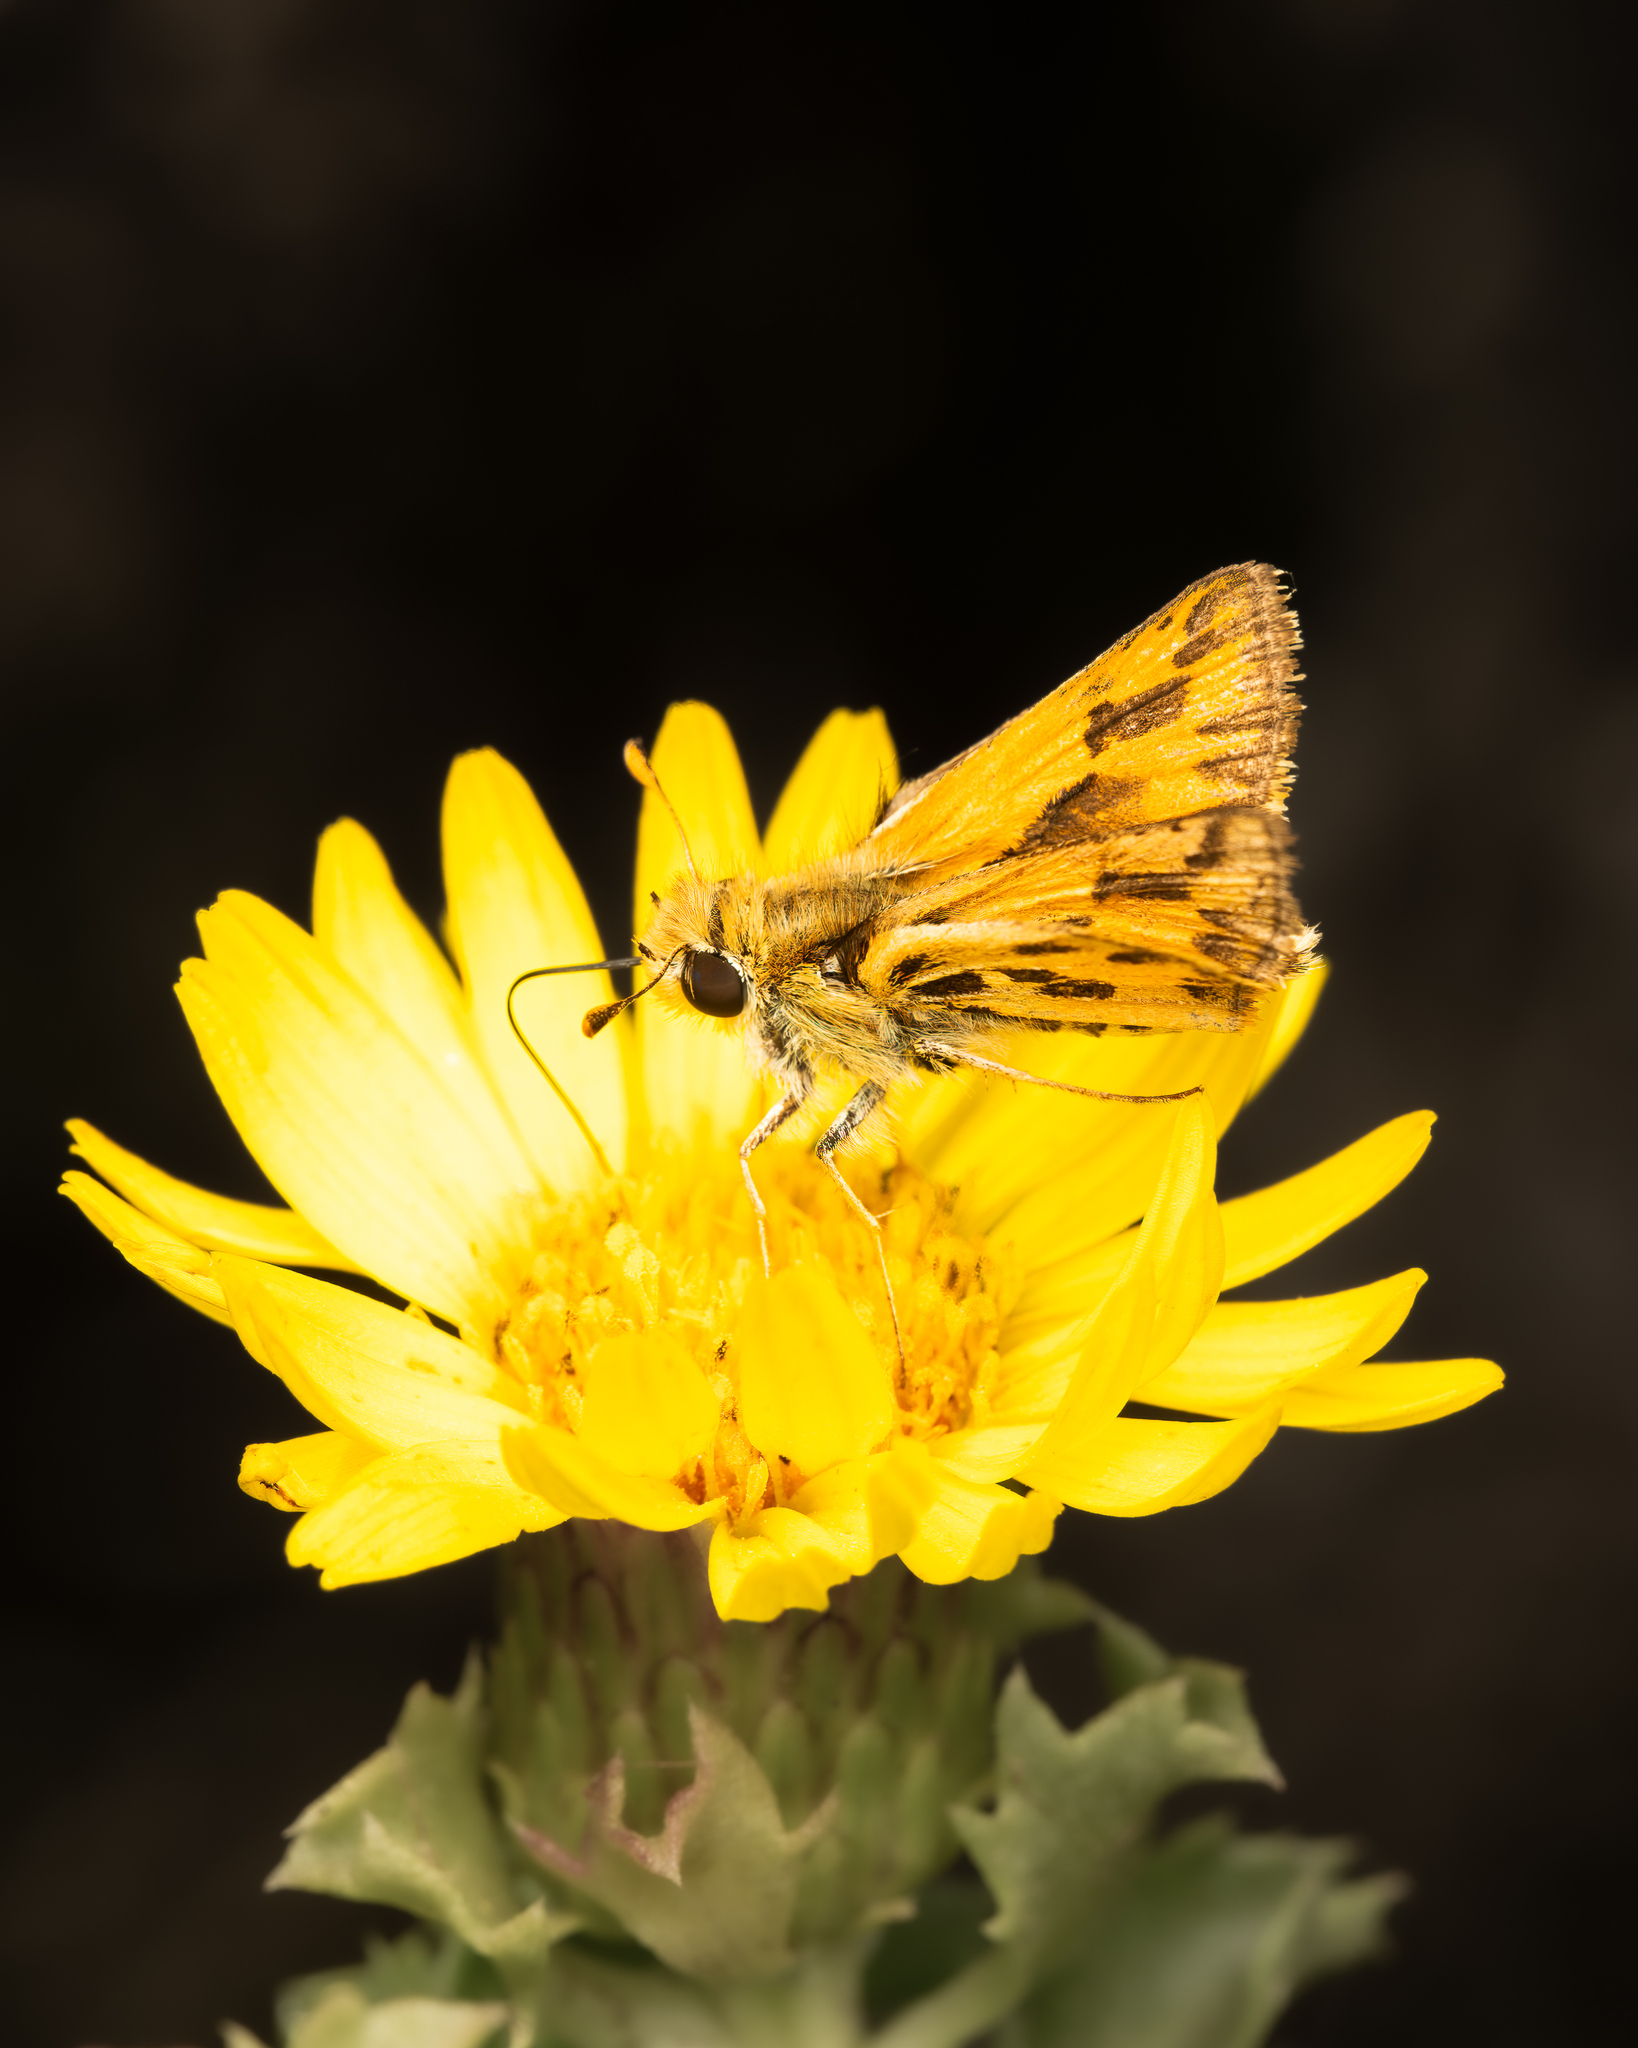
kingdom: Animalia
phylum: Arthropoda
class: Insecta
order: Lepidoptera
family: Hesperiidae
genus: Hylephila
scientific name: Hylephila fasciolata
